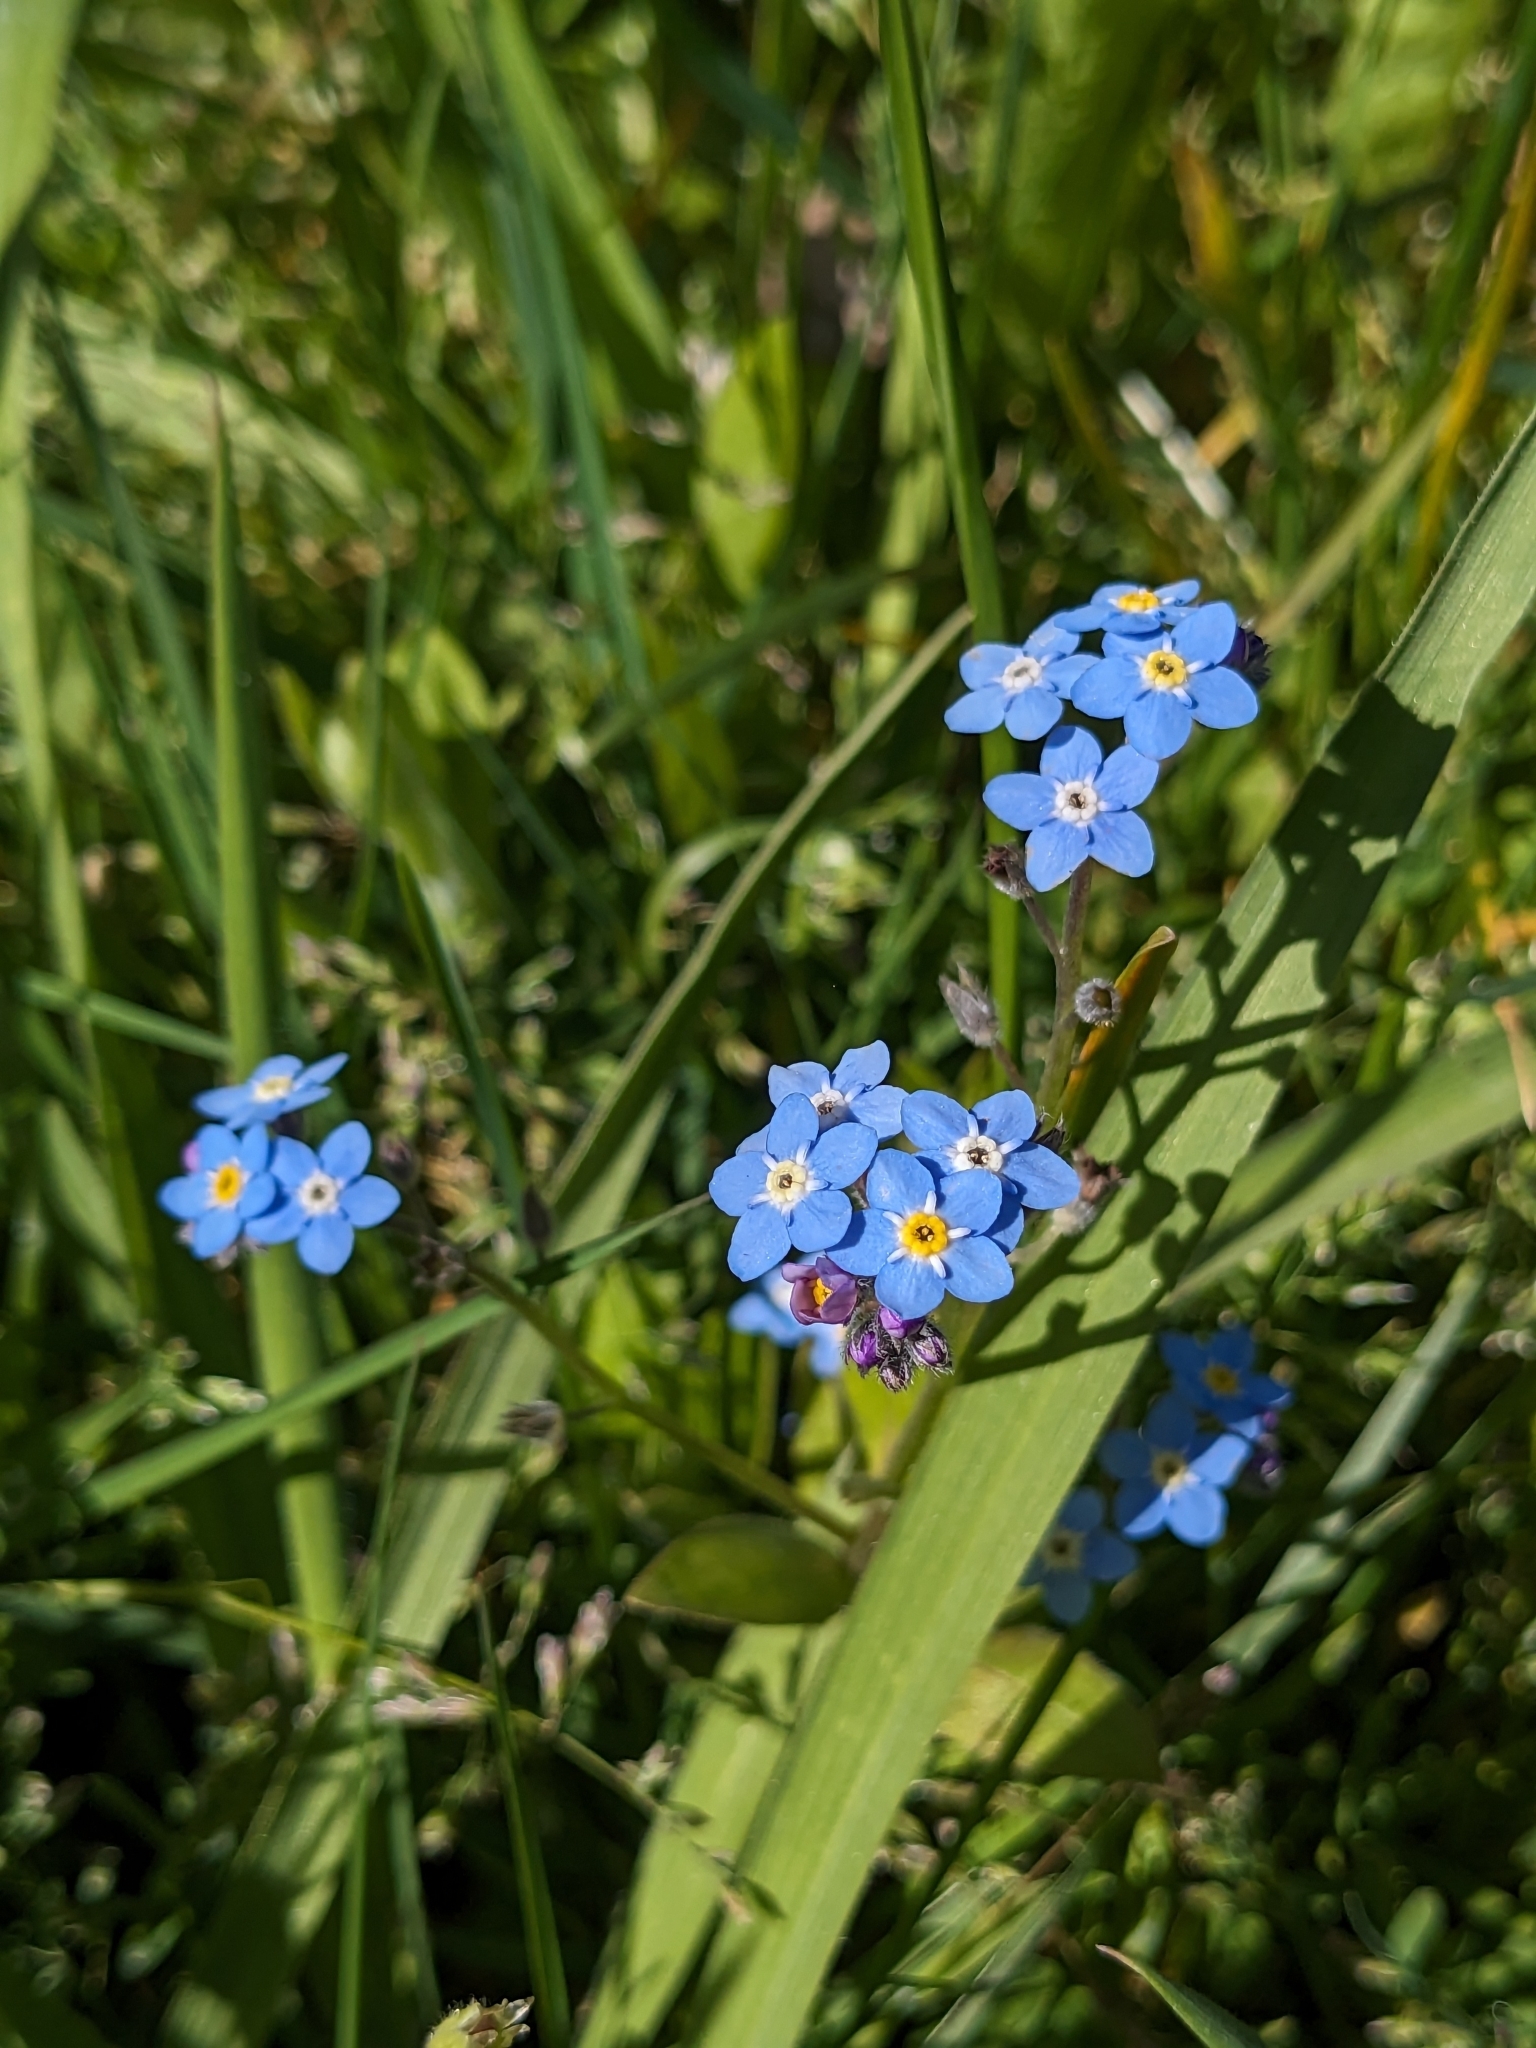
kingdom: Plantae
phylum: Tracheophyta
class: Magnoliopsida
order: Boraginales
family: Boraginaceae
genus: Myosotis
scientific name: Myosotis sylvatica
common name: Wood forget-me-not
